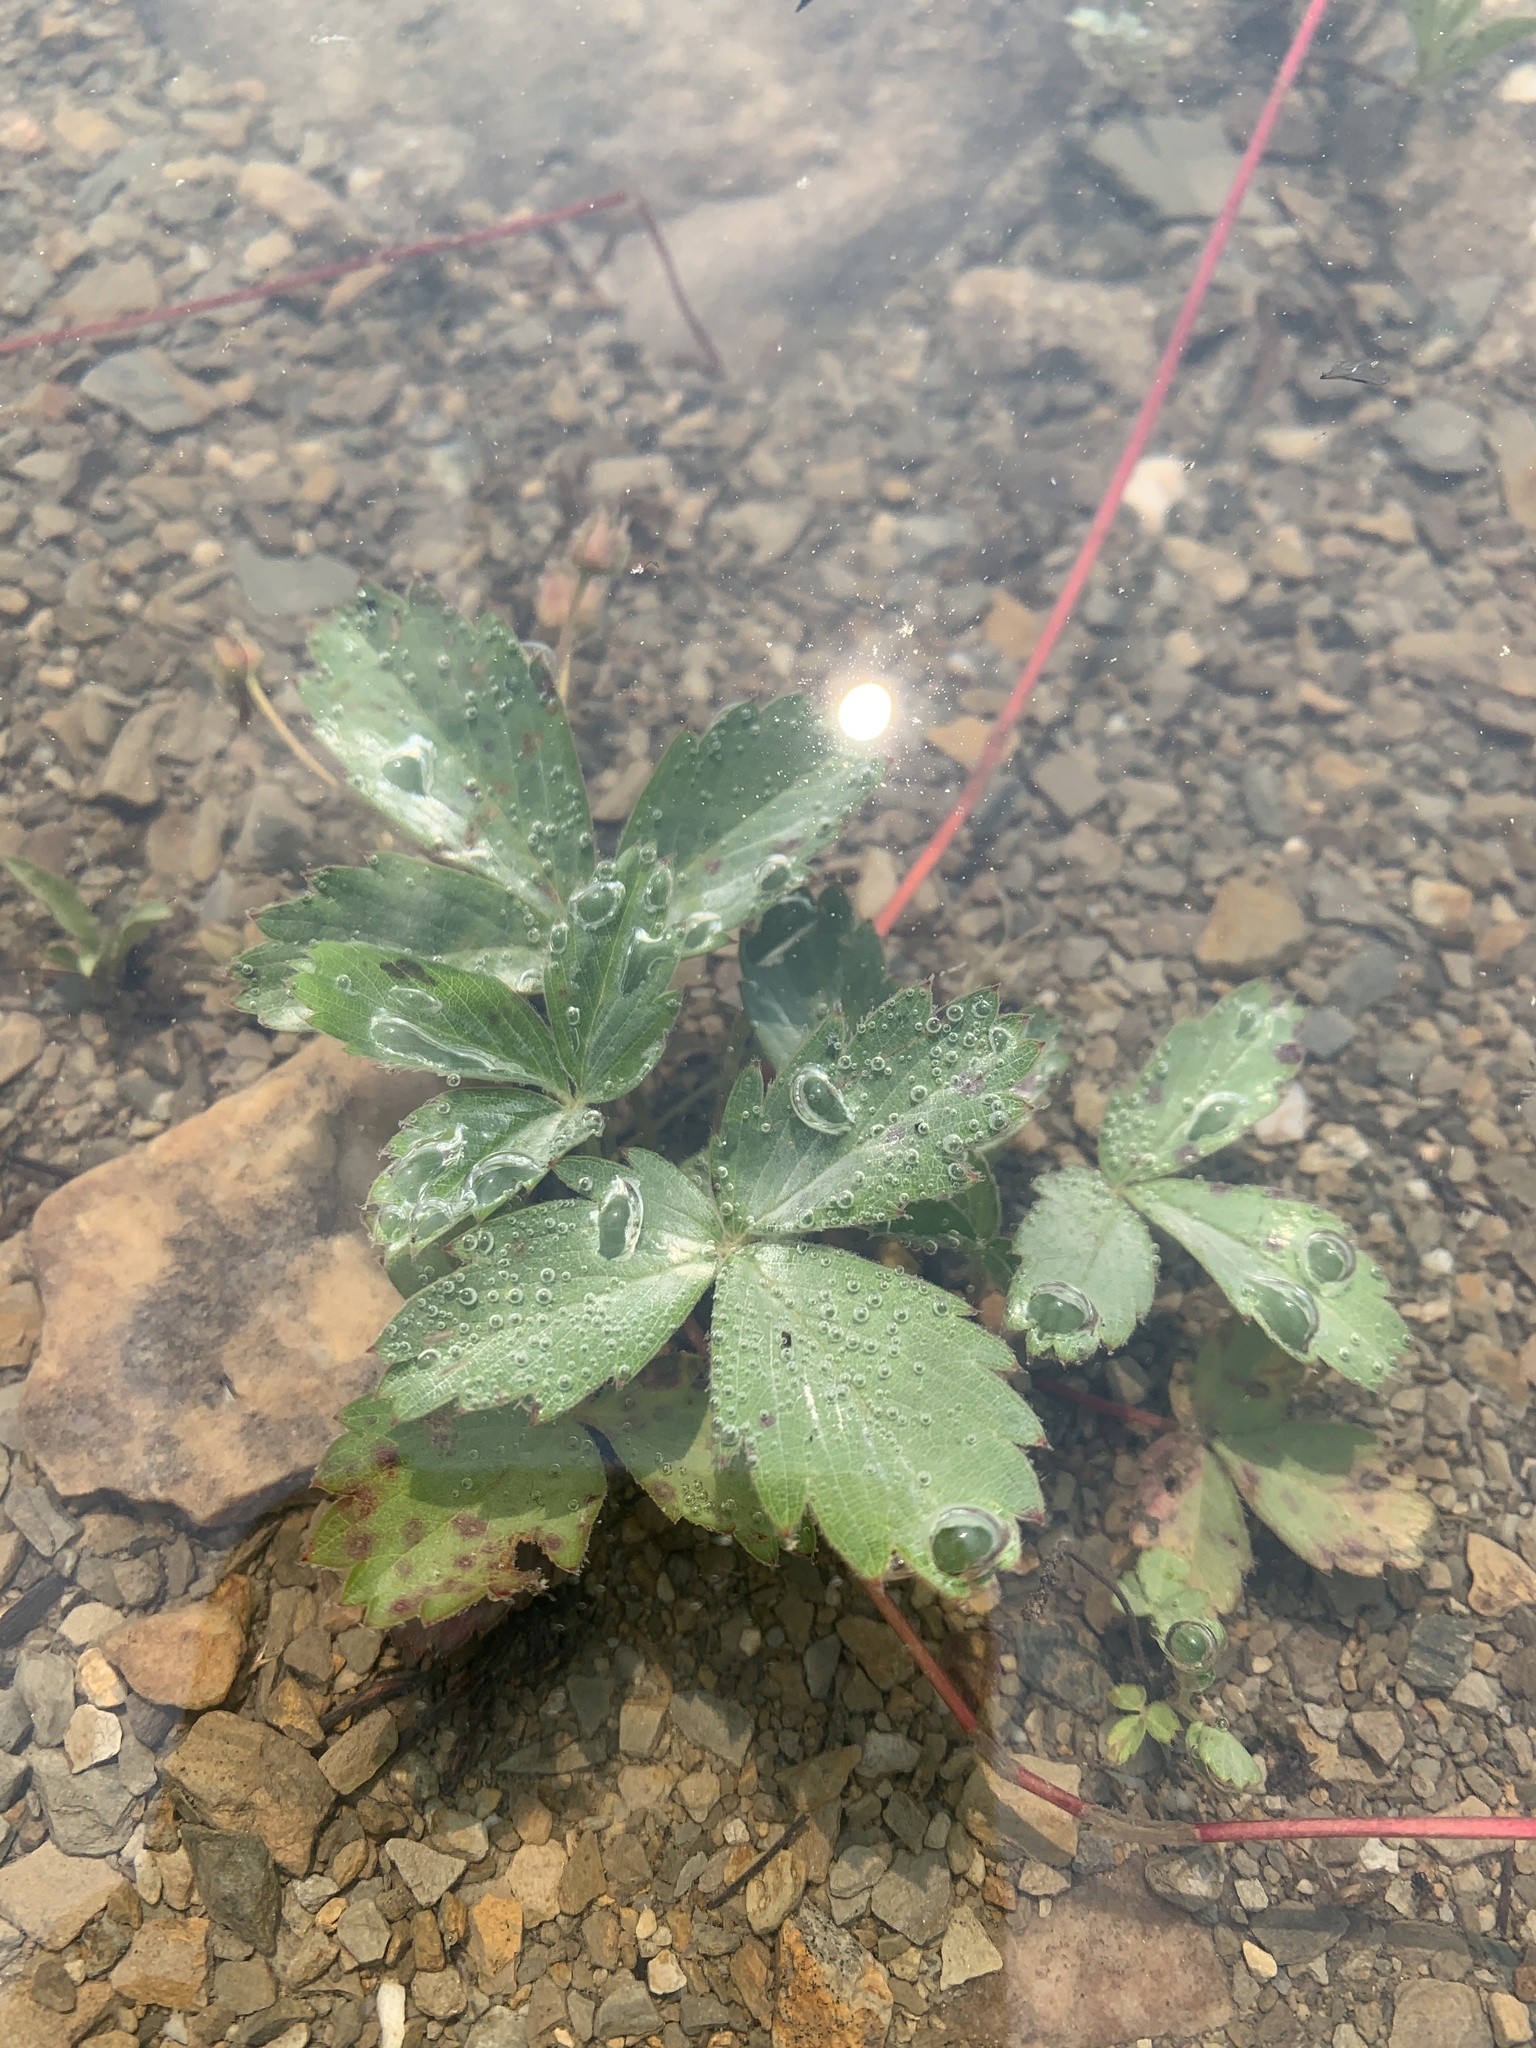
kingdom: Plantae
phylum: Tracheophyta
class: Magnoliopsida
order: Rosales
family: Rosaceae
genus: Fragaria
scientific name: Fragaria virginiana
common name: Thickleaved wild strawberry
